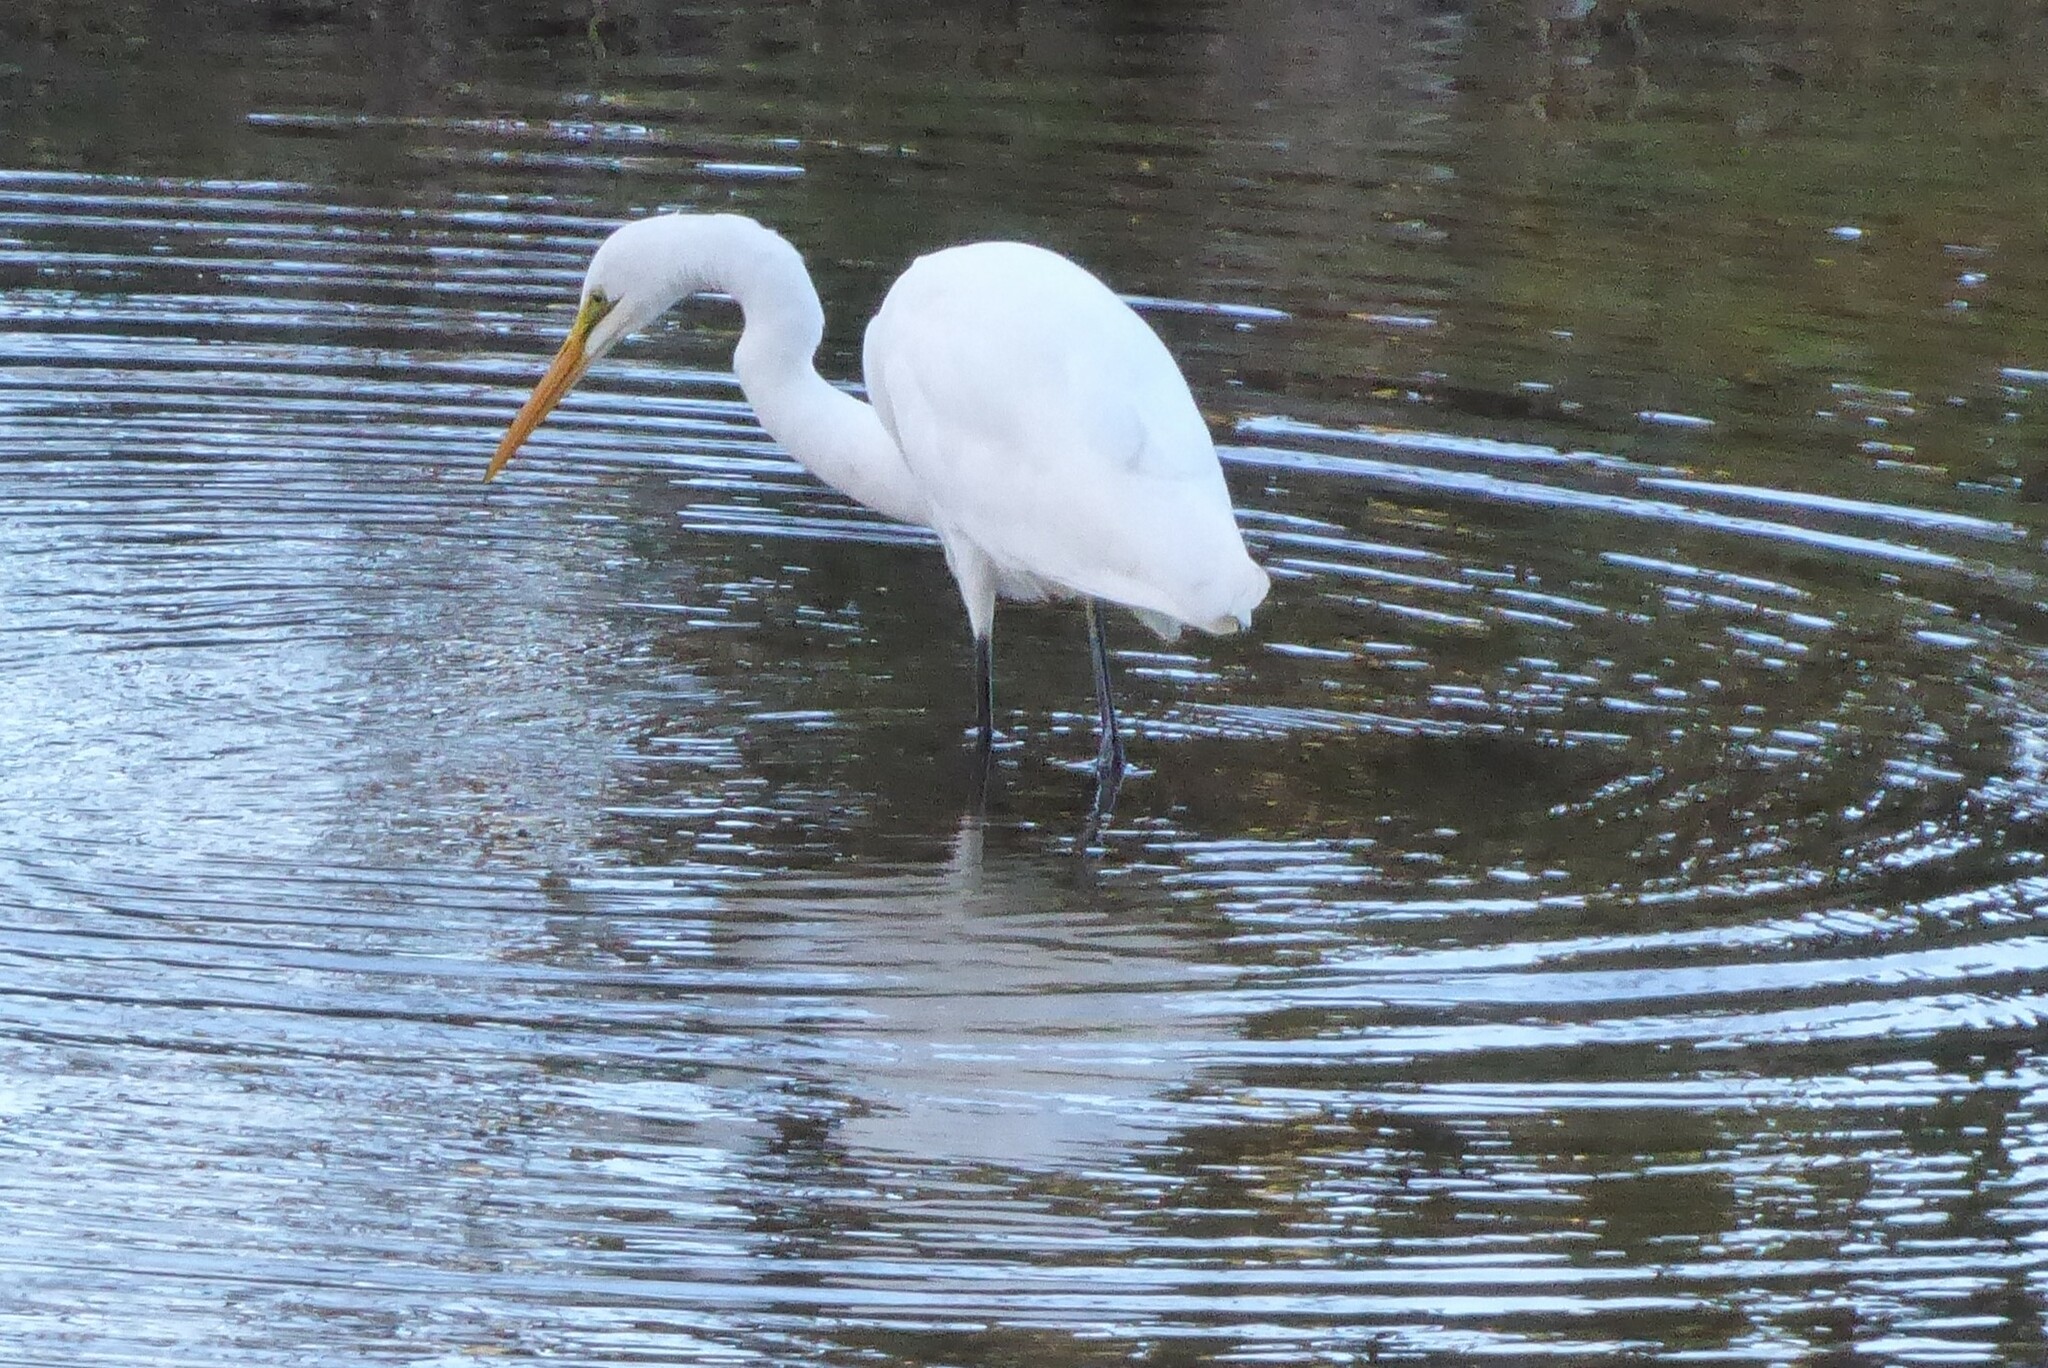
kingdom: Animalia
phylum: Chordata
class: Aves
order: Pelecaniformes
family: Ardeidae
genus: Ardea
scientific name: Ardea modesta
